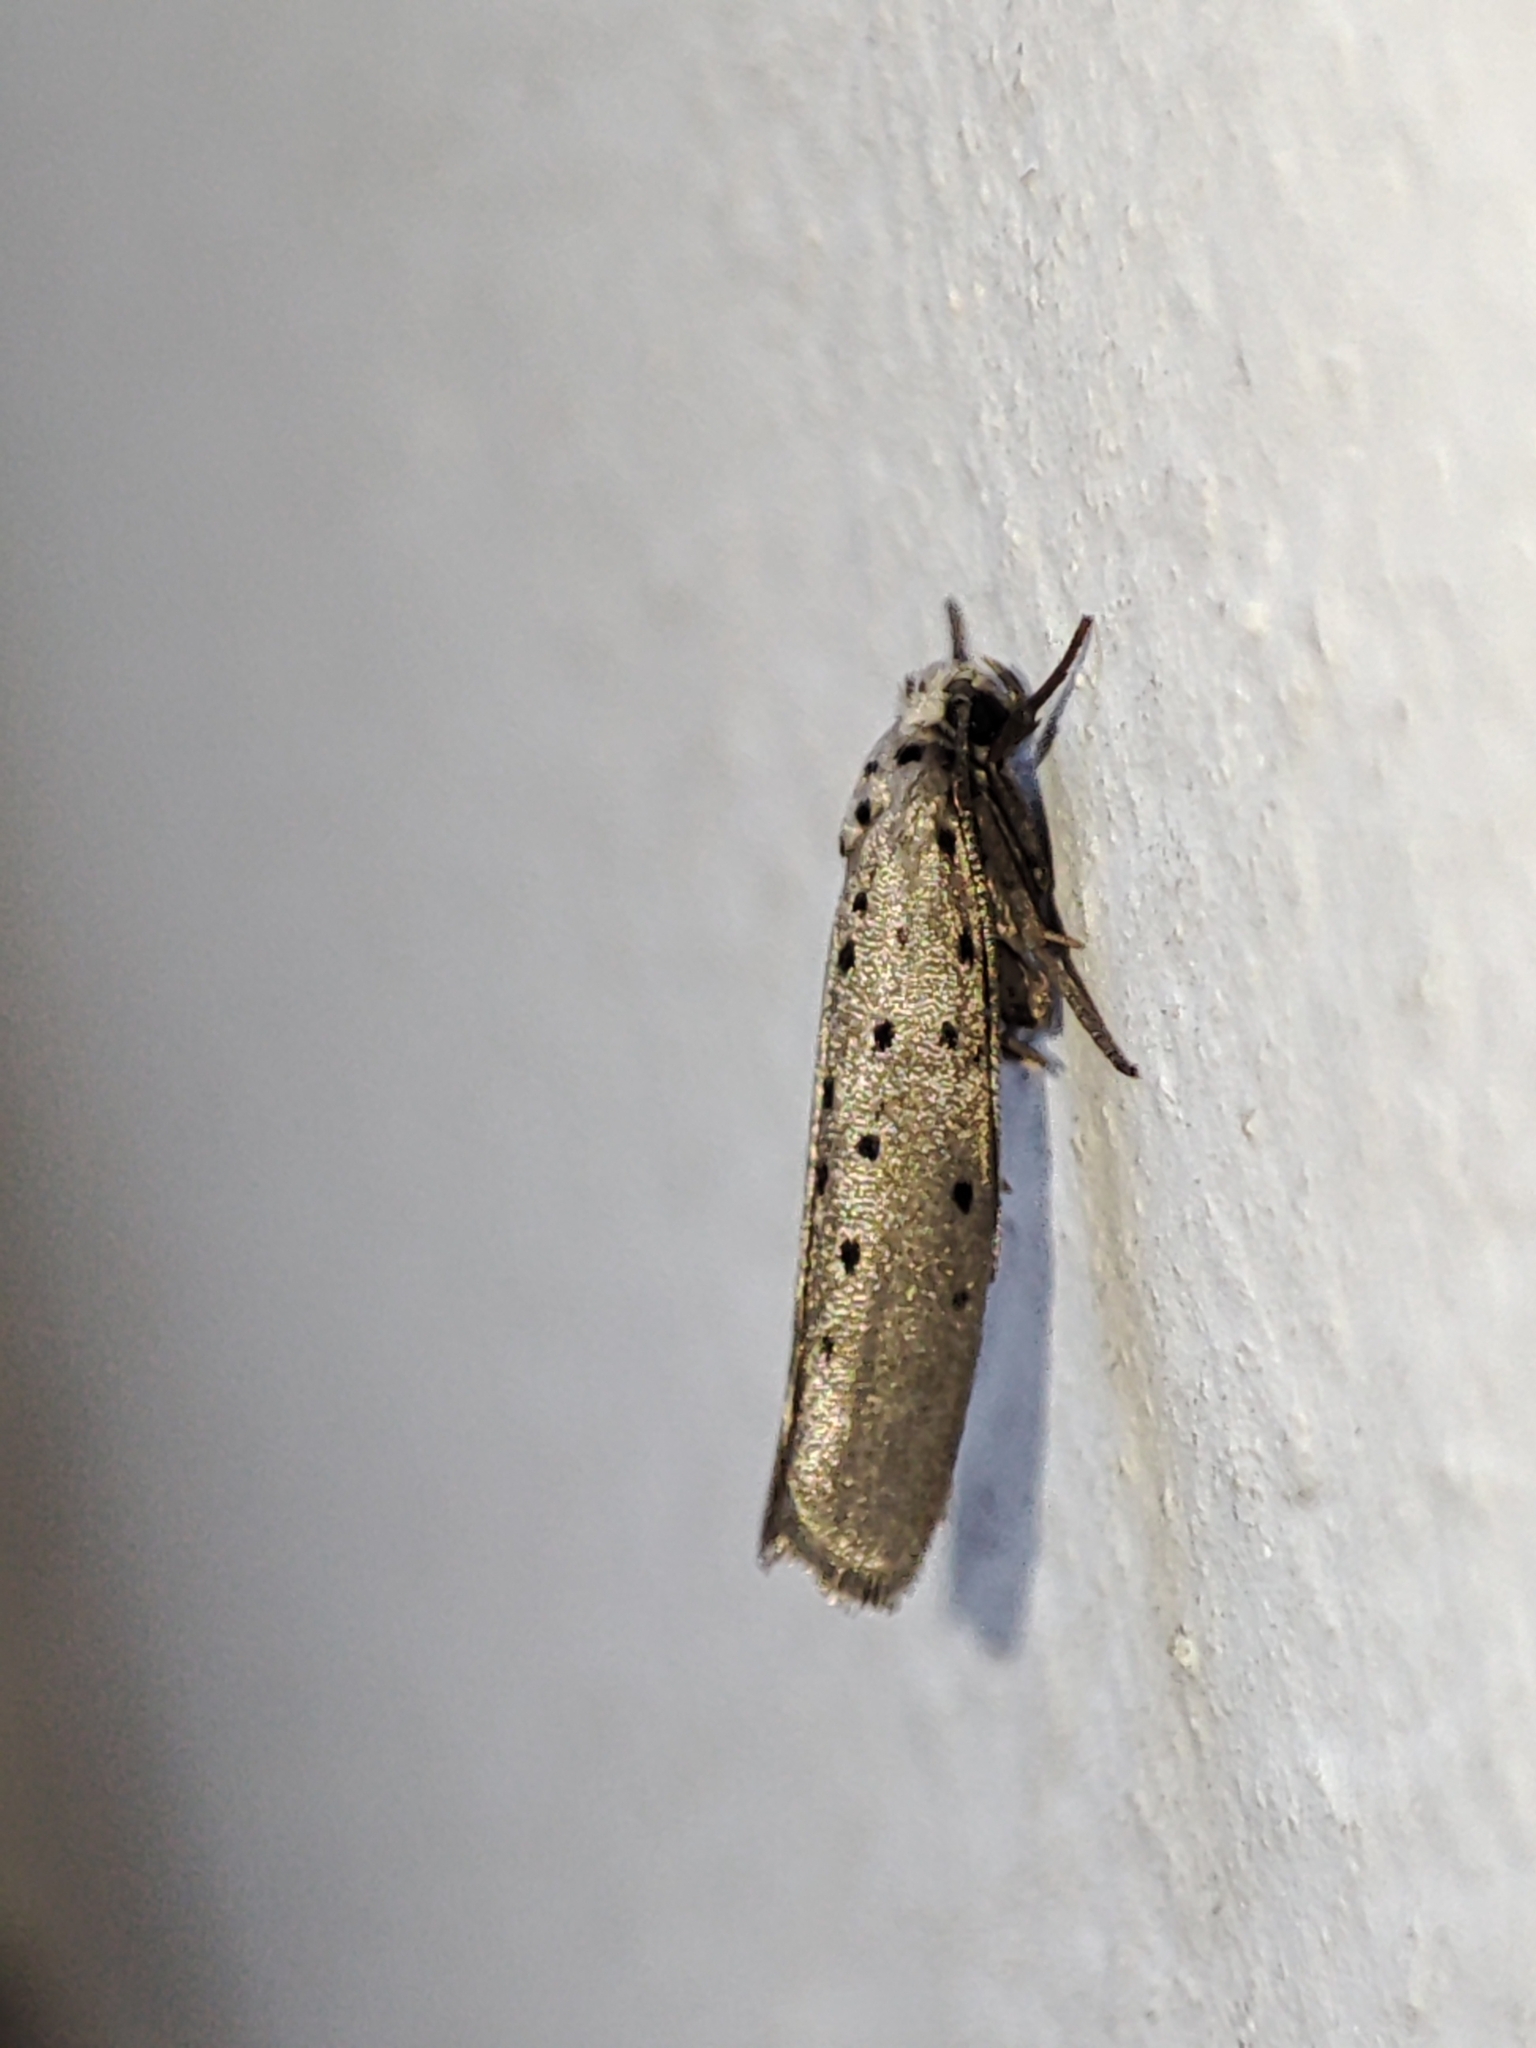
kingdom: Animalia
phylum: Arthropoda
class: Insecta
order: Lepidoptera
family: Yponomeutidae
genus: Yponomeuta
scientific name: Yponomeuta vigintipunctata
